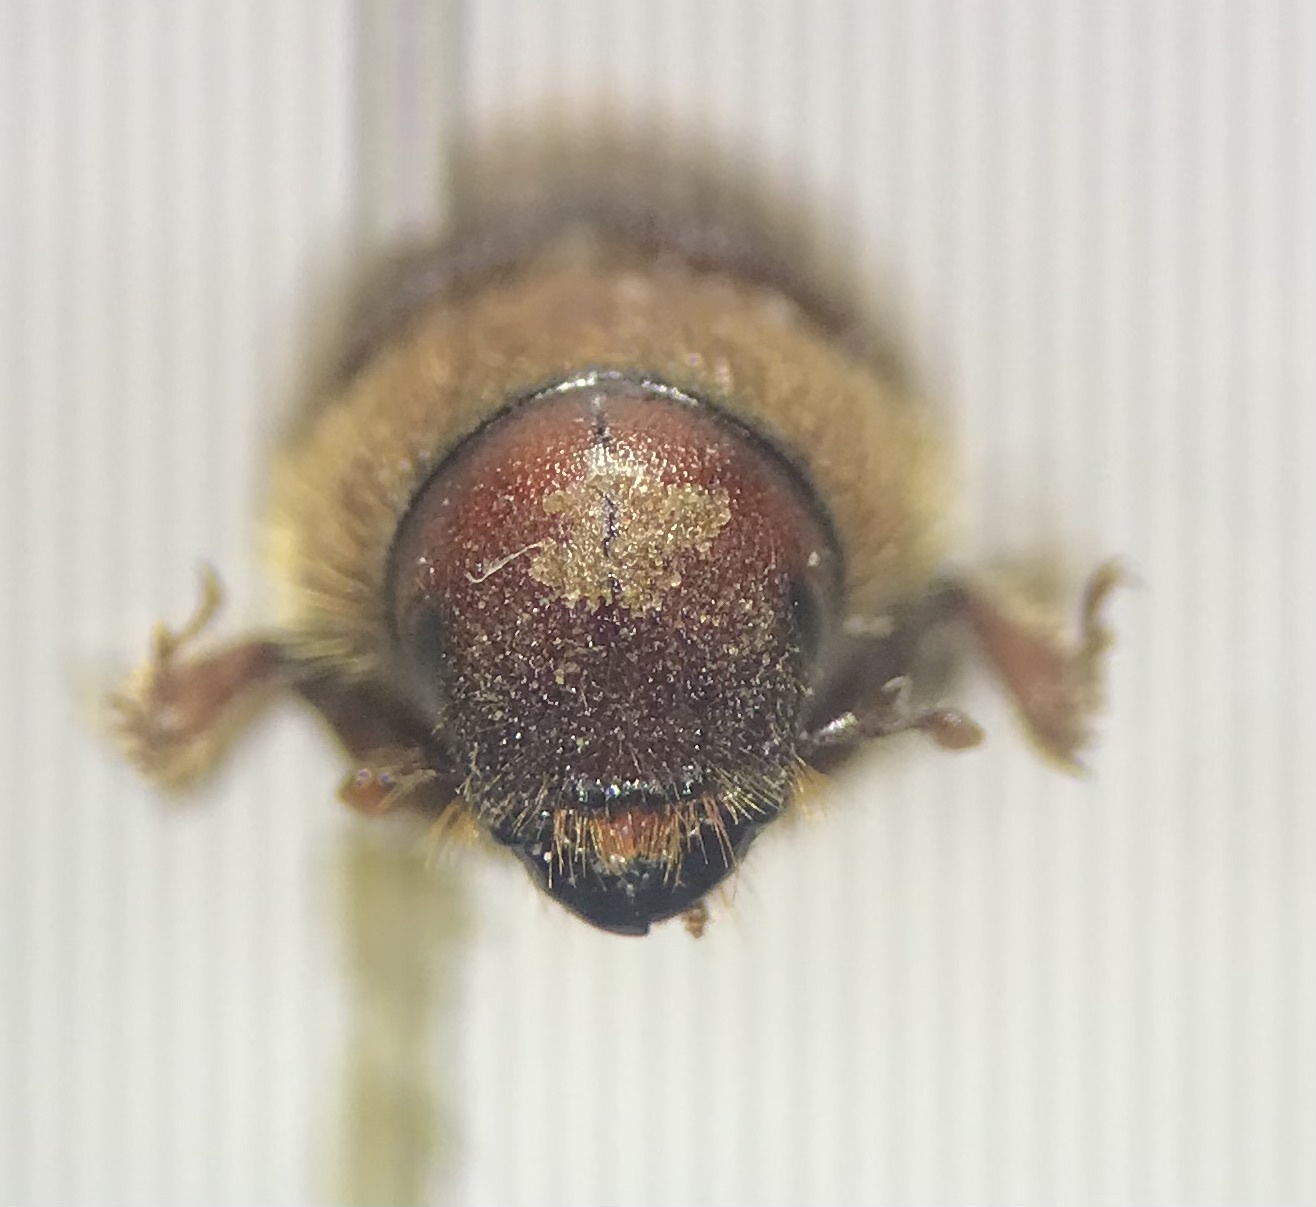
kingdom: Animalia
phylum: Arthropoda
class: Insecta
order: Coleoptera
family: Curculionidae
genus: Dendroctonus
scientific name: Dendroctonus valens
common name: Red turpentine beetle
